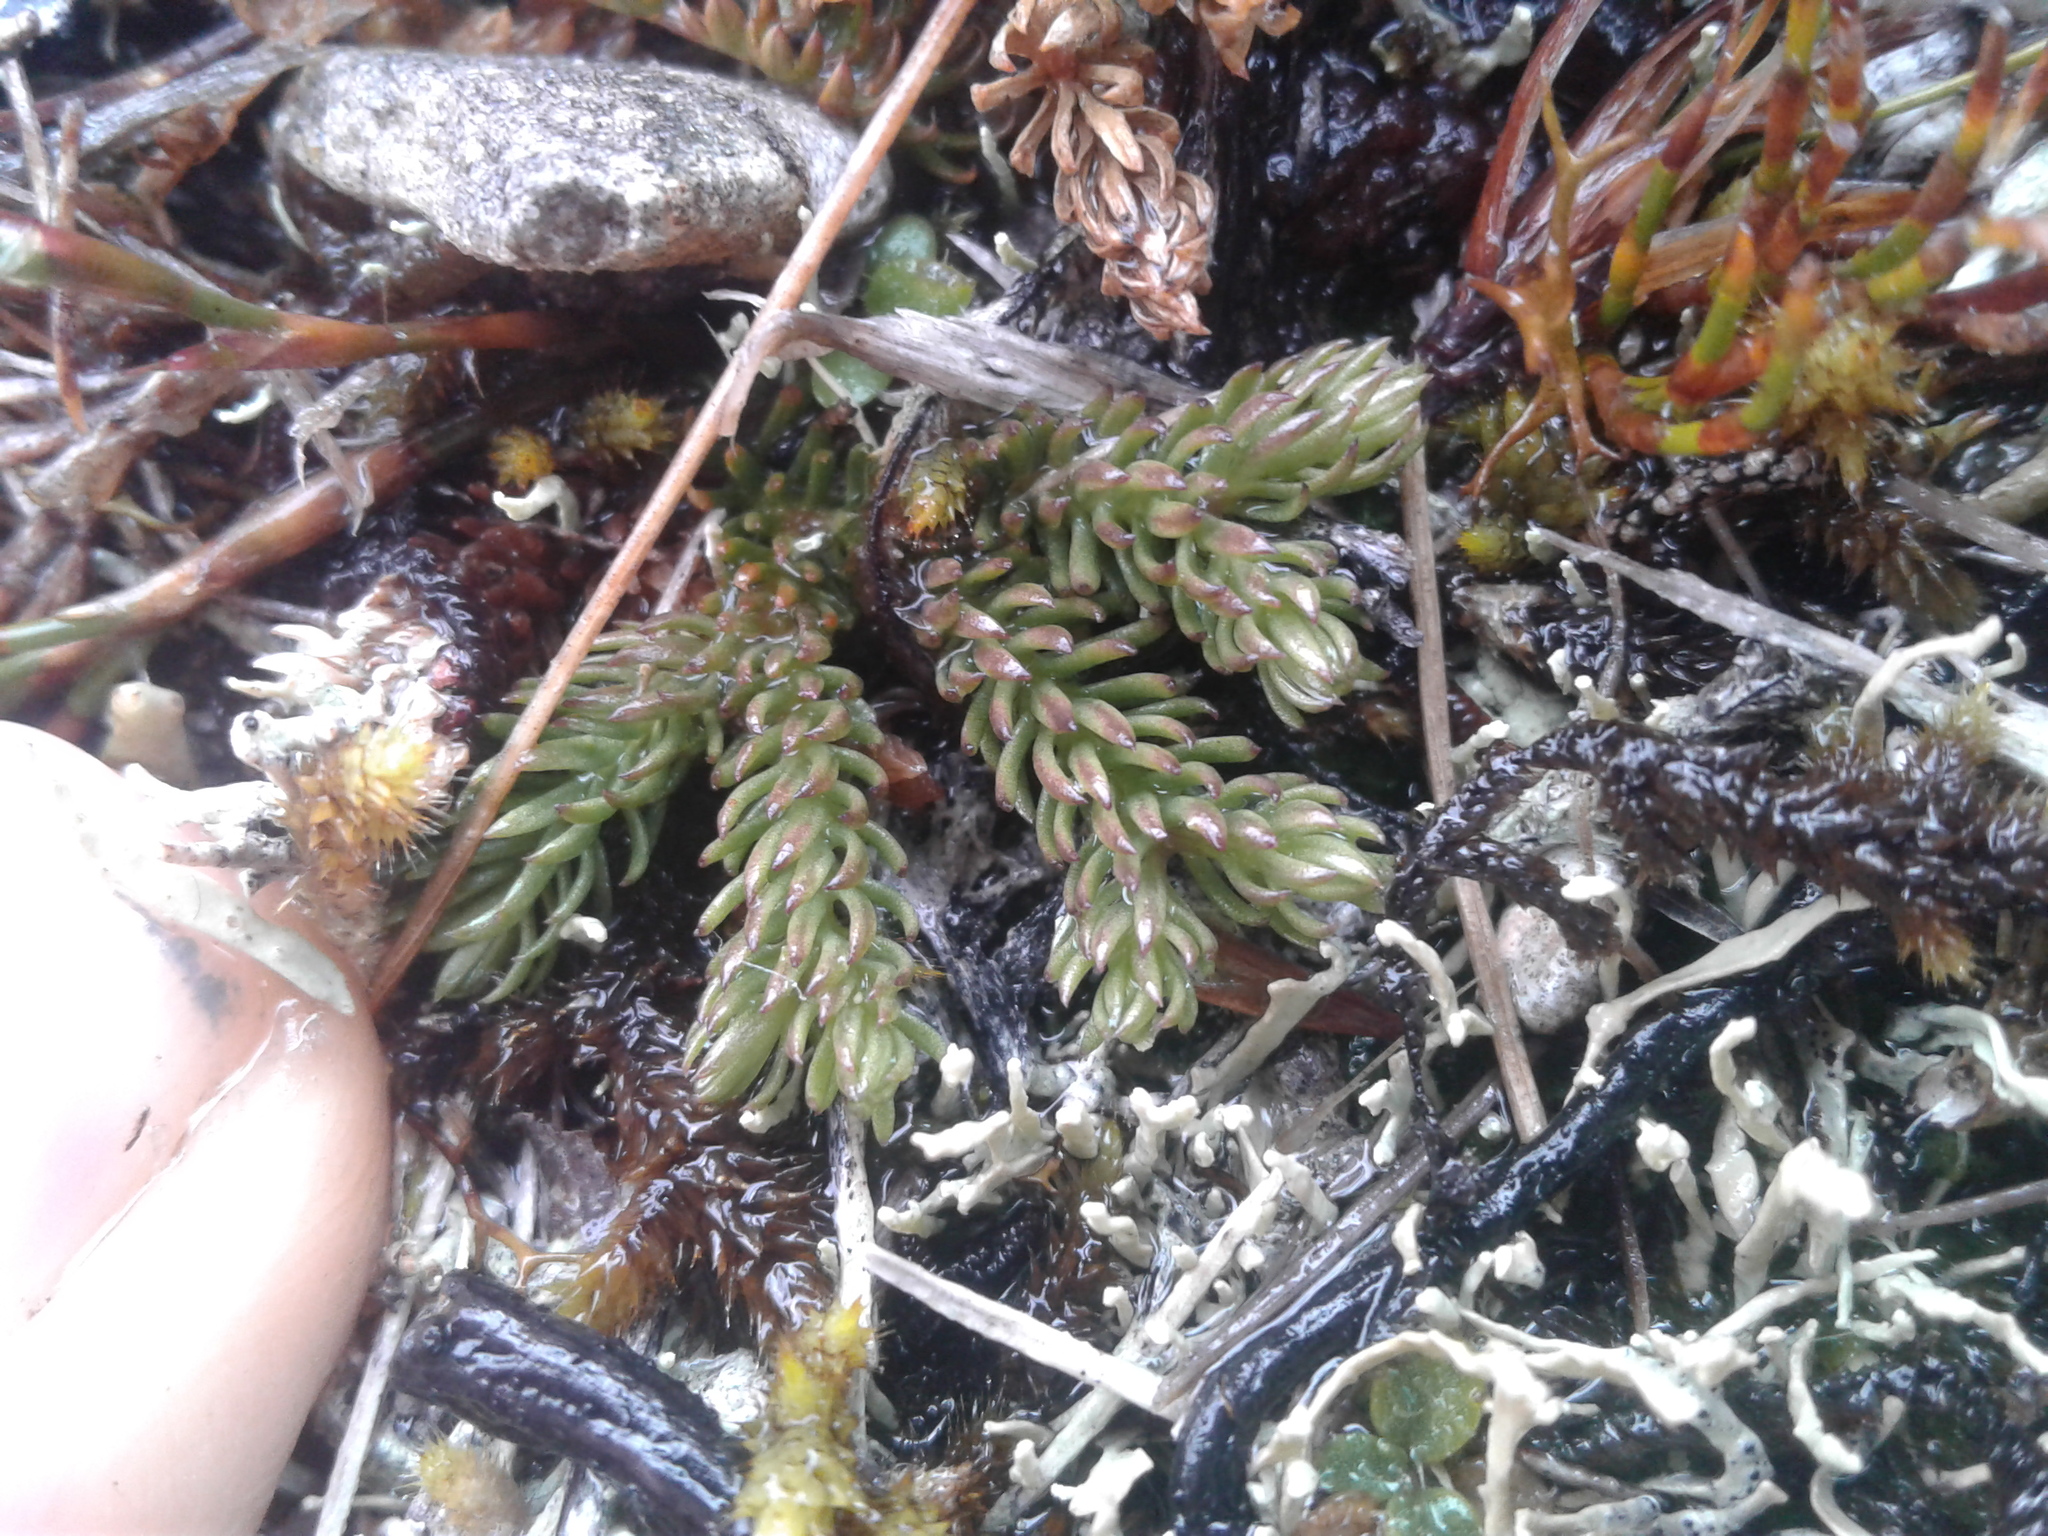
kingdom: Plantae
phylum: Tracheophyta
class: Lycopodiopsida
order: Lycopodiales
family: Lycopodiaceae
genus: Austrolycopodium
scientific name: Austrolycopodium fastigiatum
